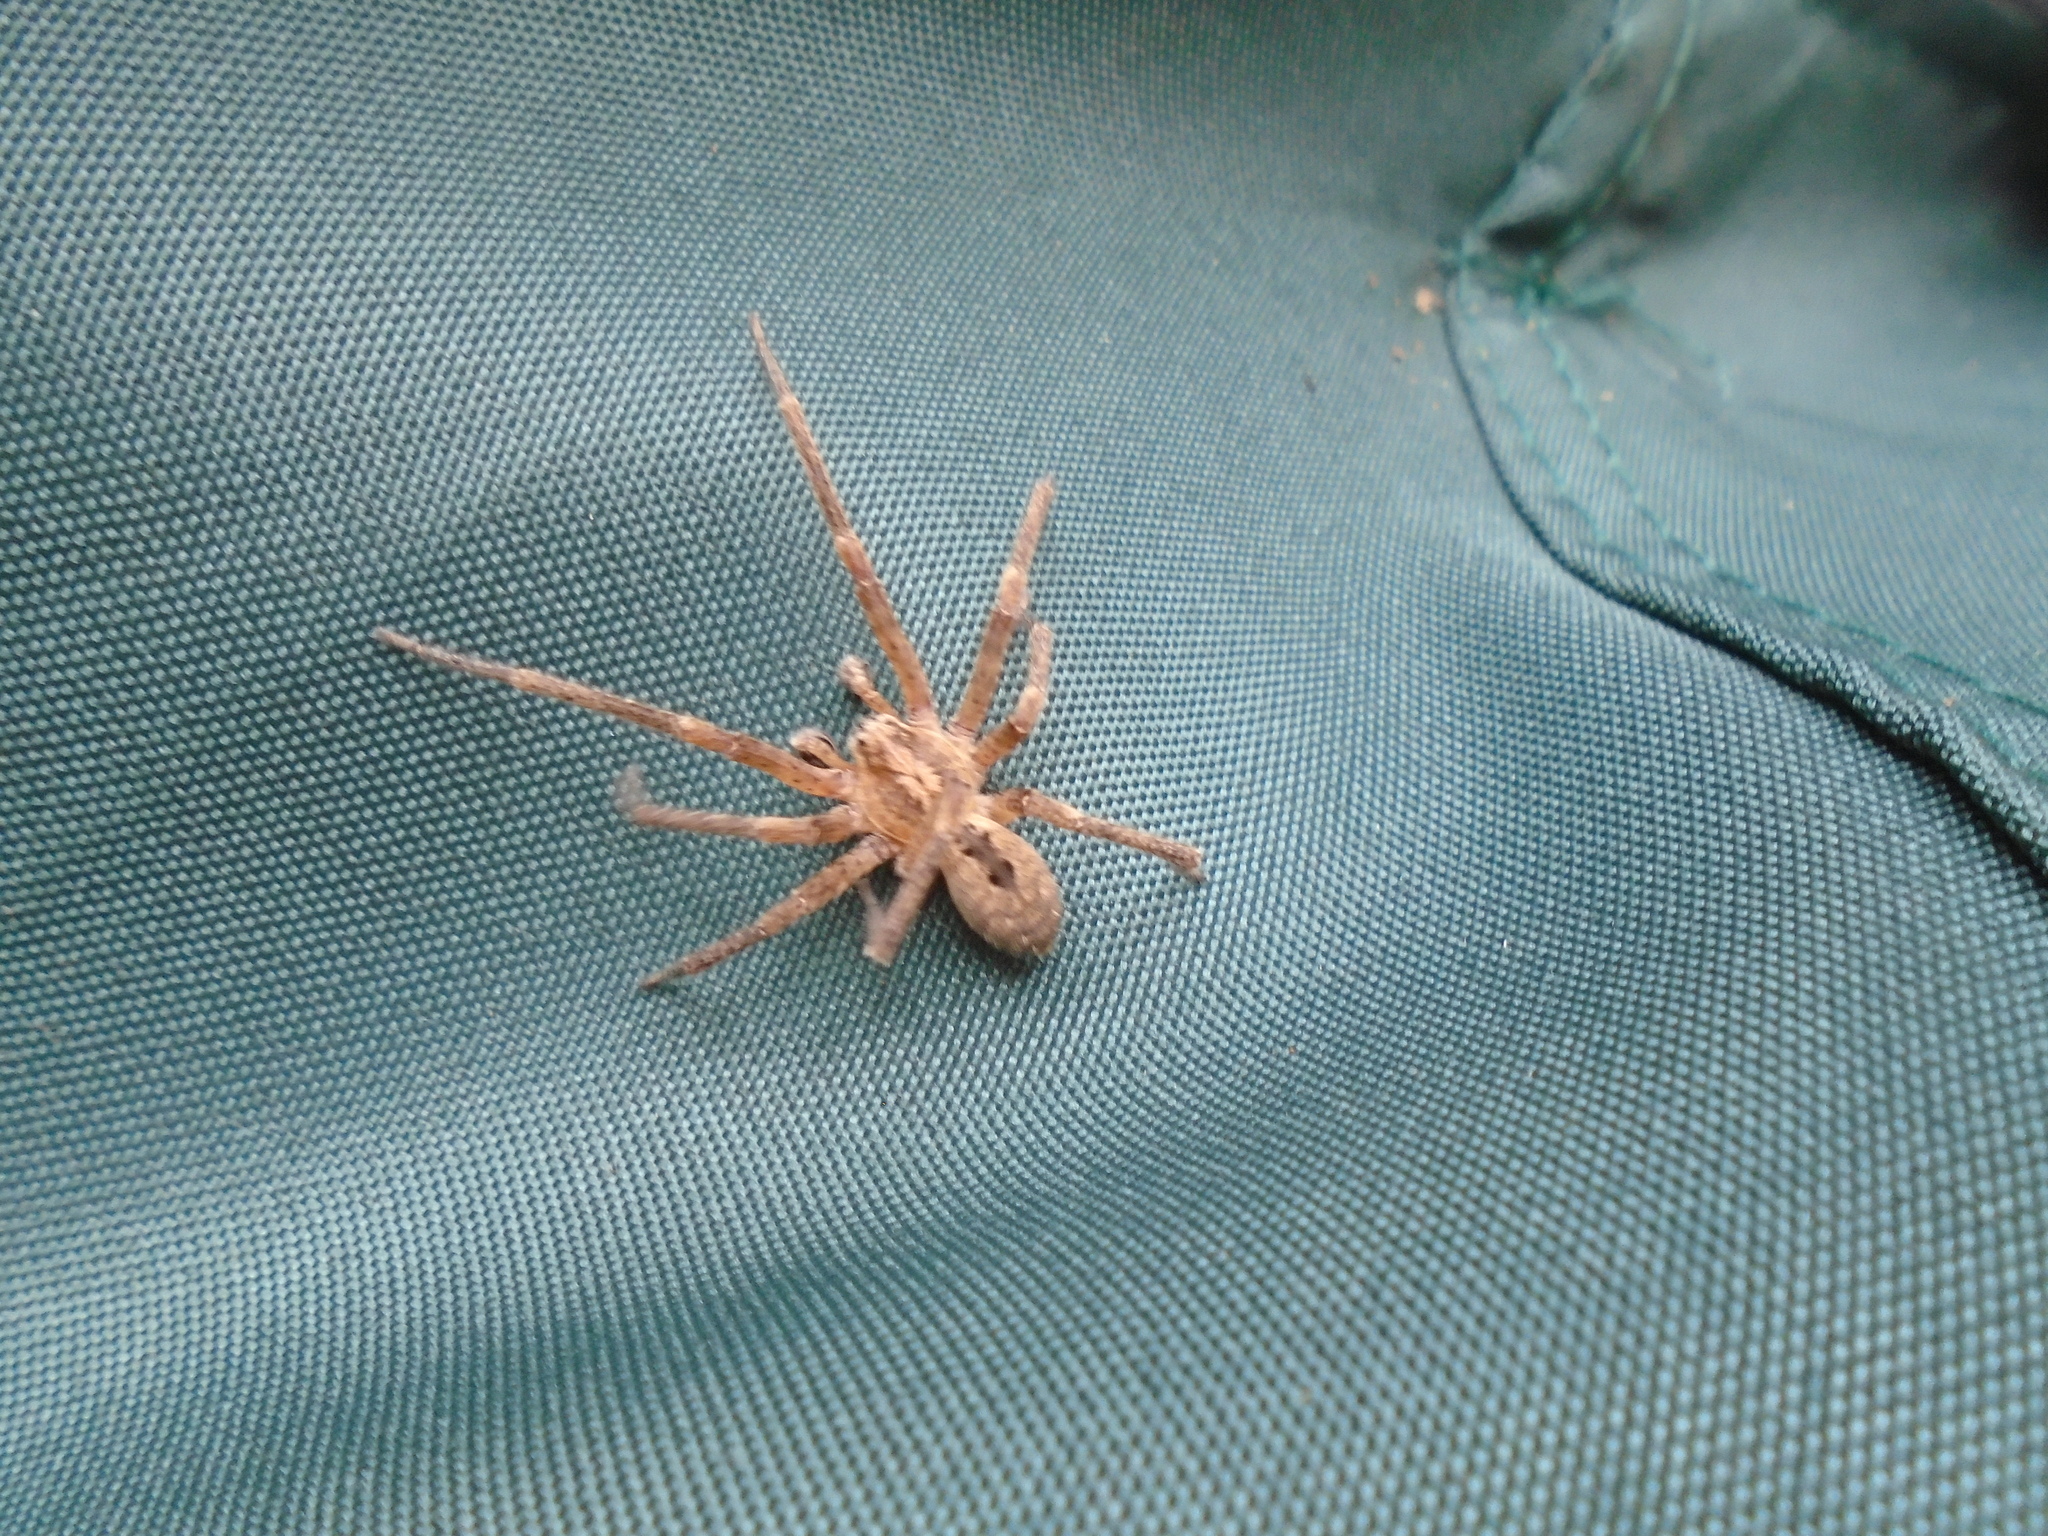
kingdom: Animalia
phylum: Arthropoda
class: Arachnida
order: Araneae
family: Zoropsidae
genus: Zoropsis
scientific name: Zoropsis spinimana
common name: Zoropsid spider
